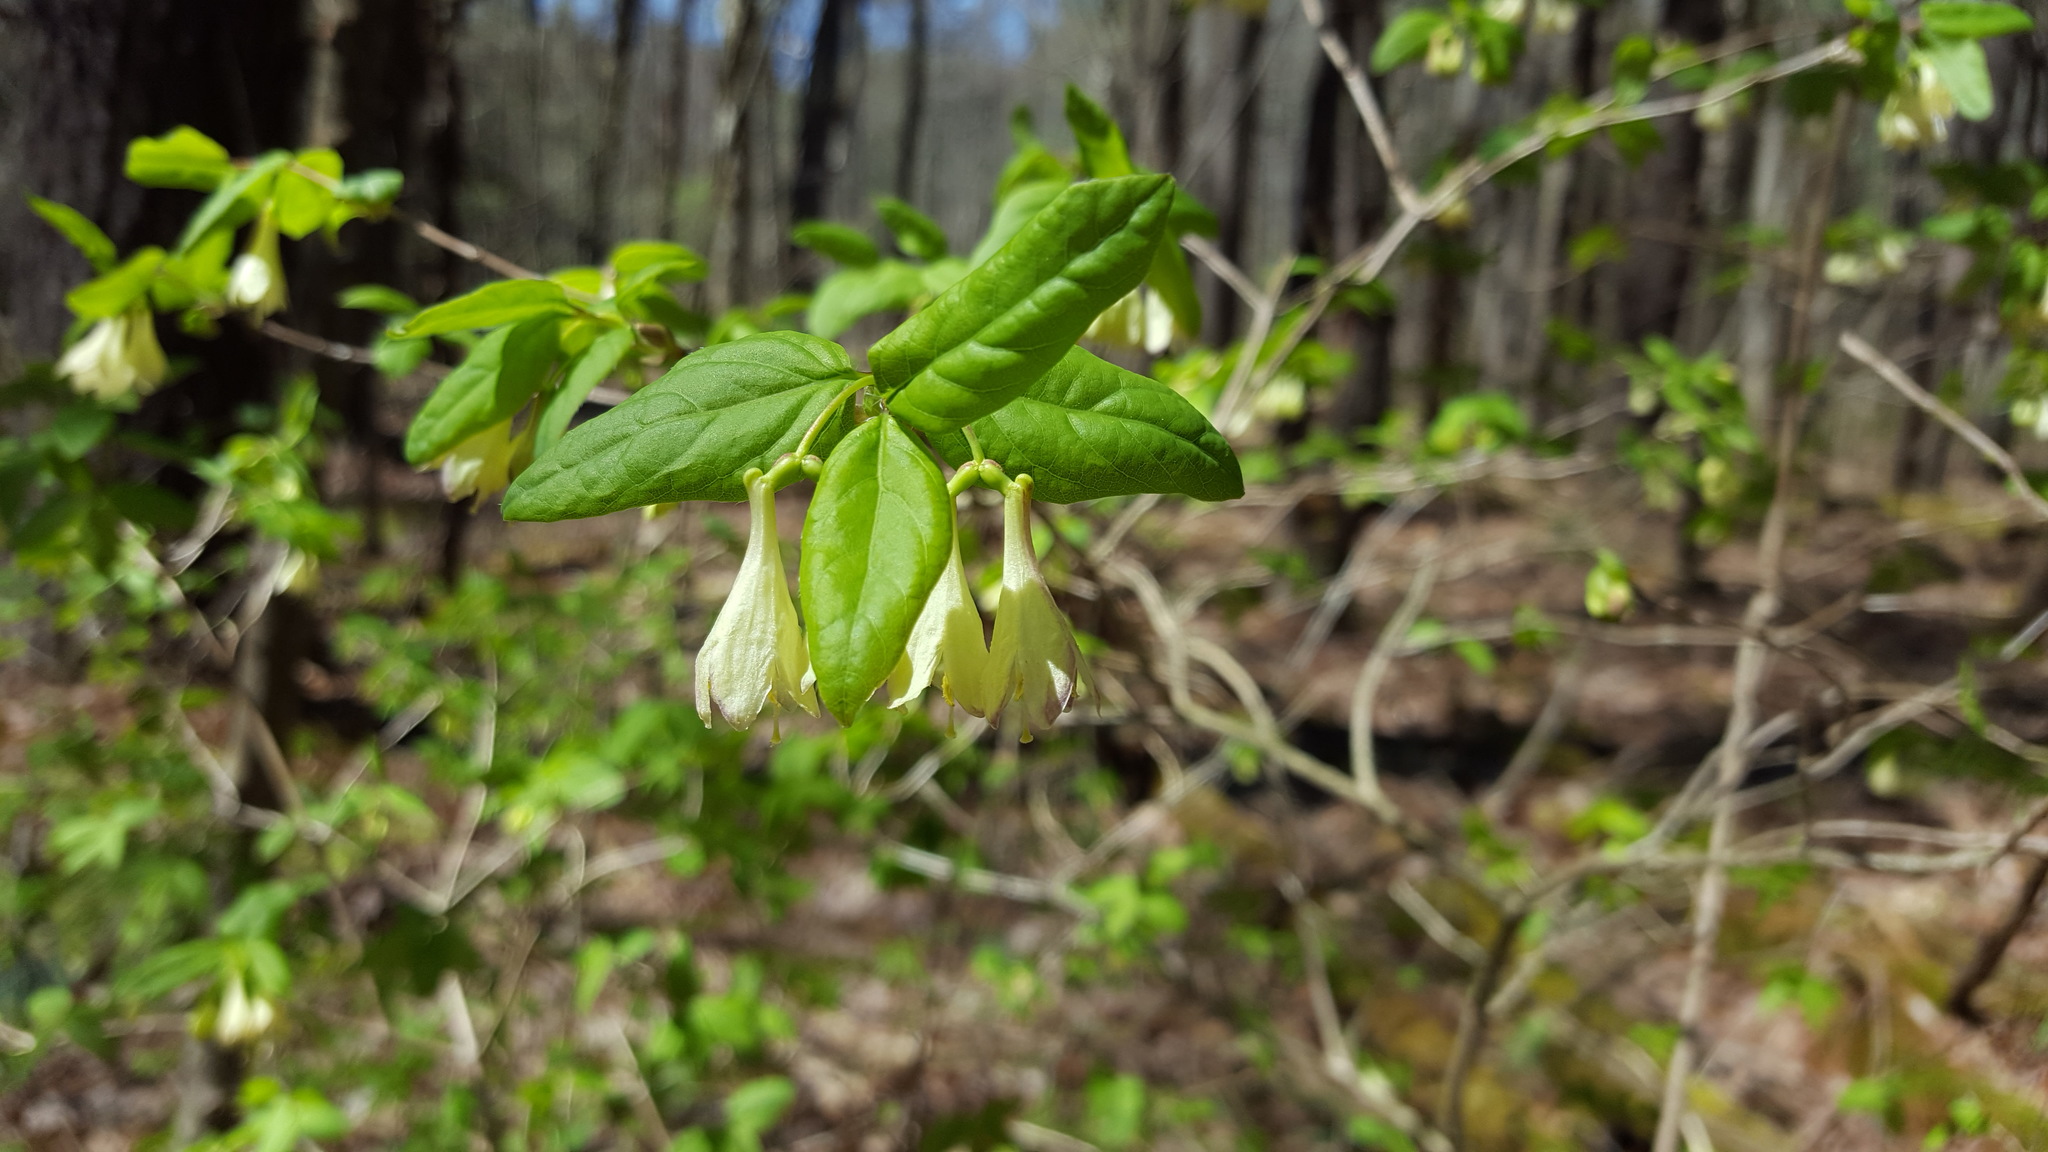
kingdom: Plantae
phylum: Tracheophyta
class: Magnoliopsida
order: Dipsacales
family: Caprifoliaceae
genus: Lonicera
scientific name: Lonicera canadensis
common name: American fly-honeysuckle
